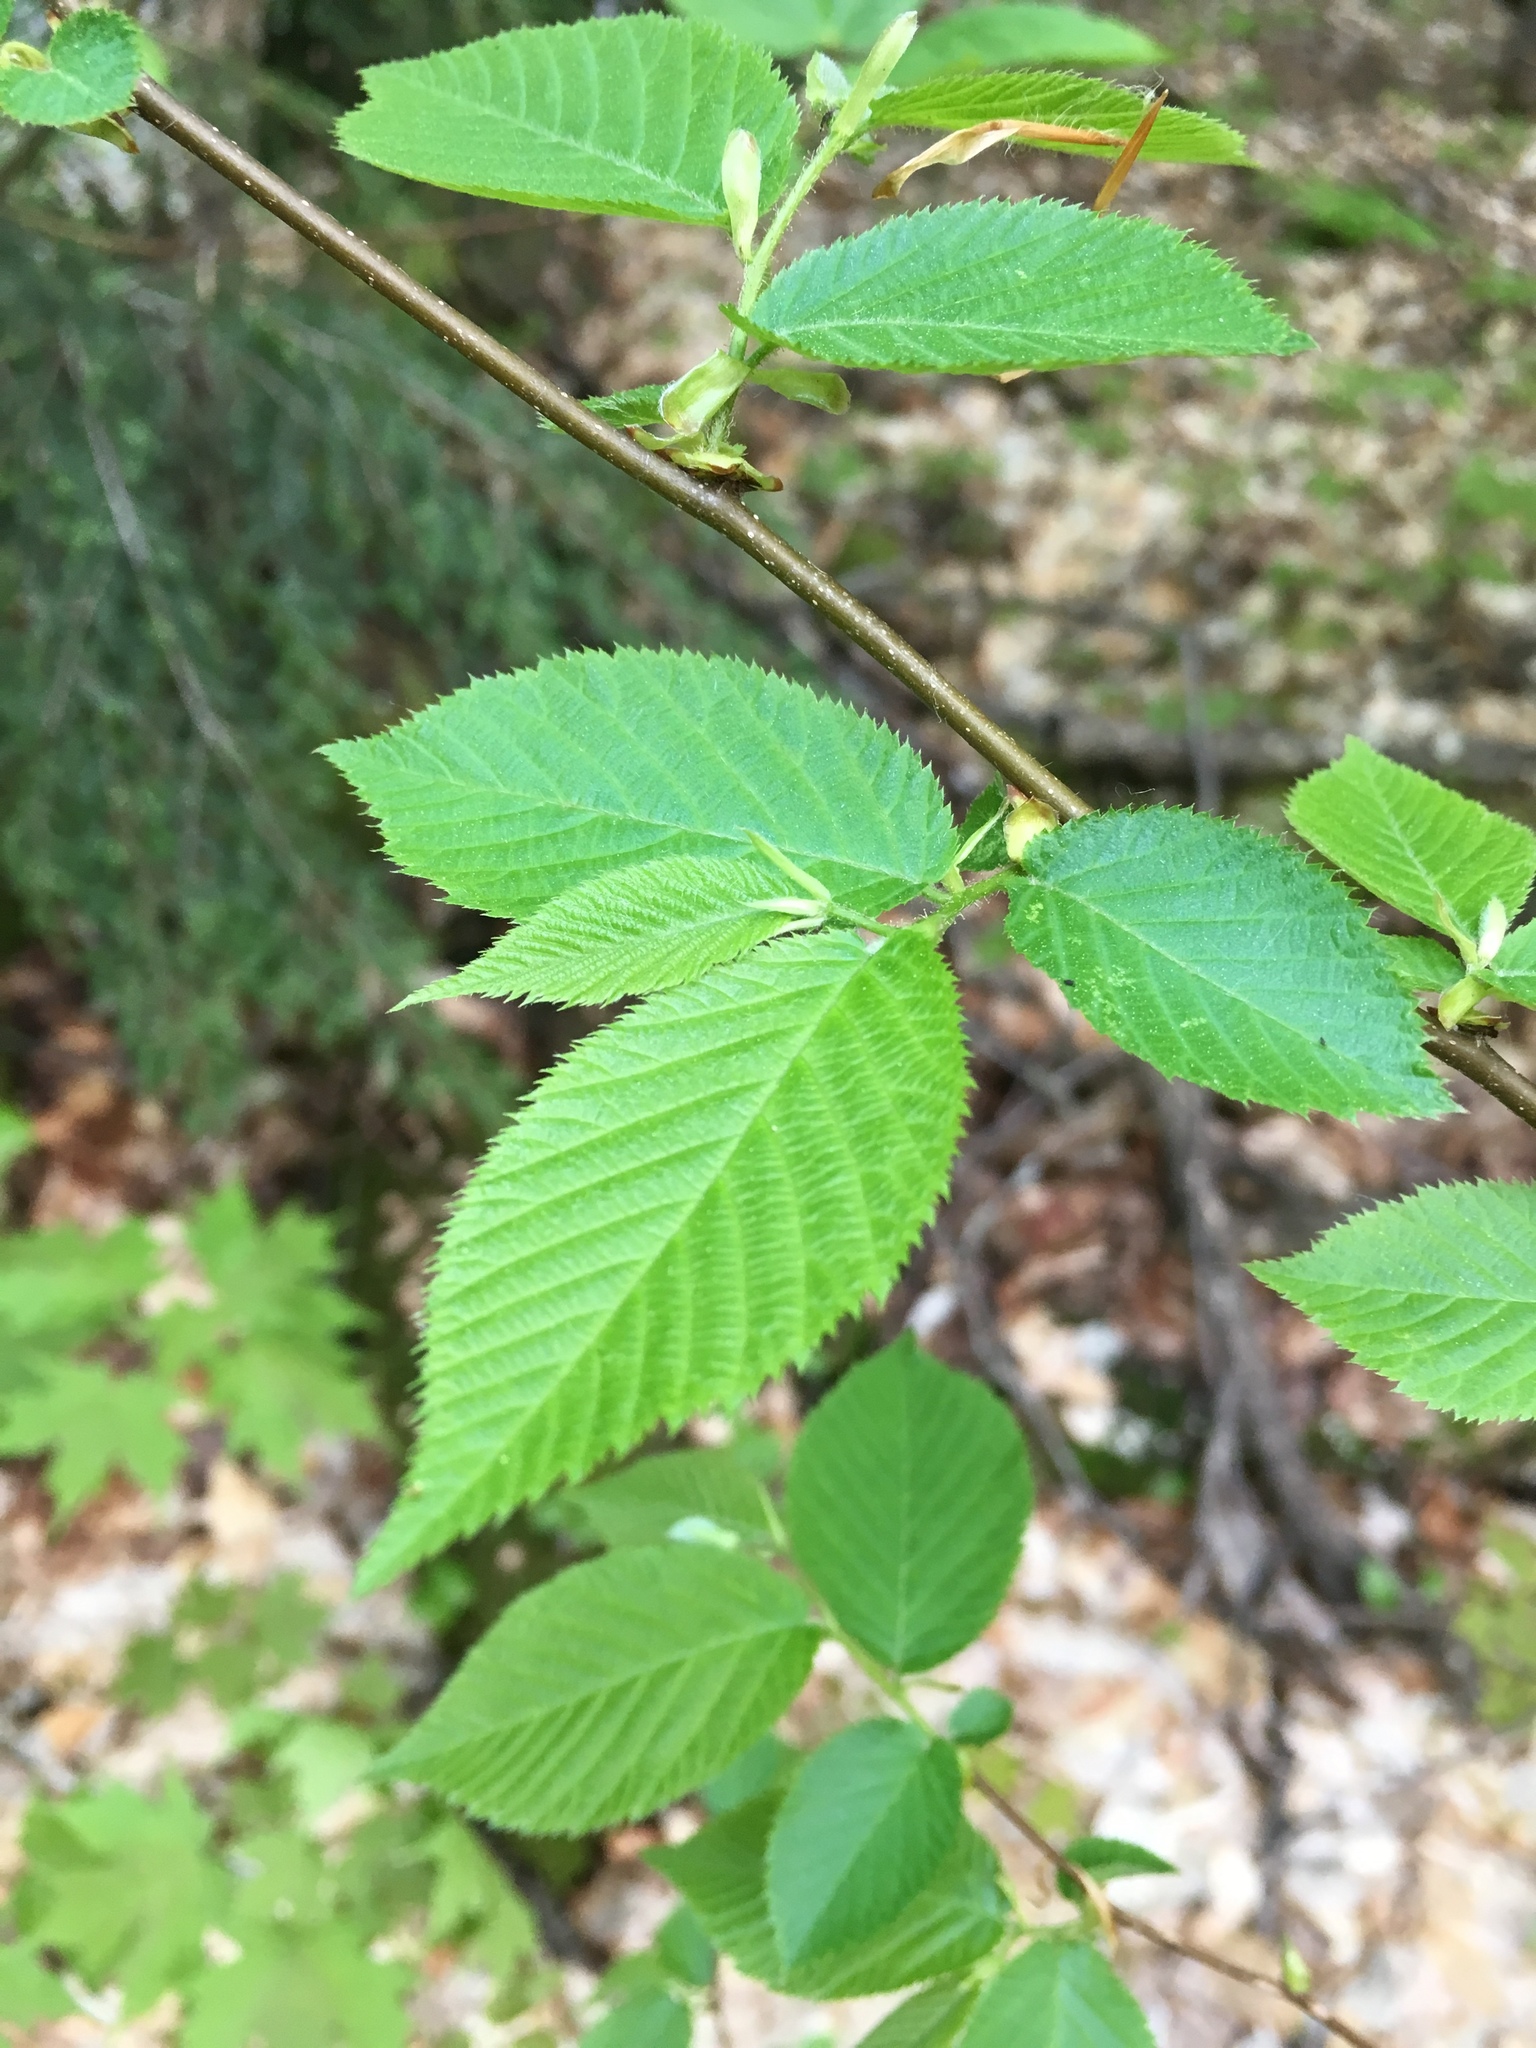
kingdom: Plantae
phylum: Tracheophyta
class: Magnoliopsida
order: Fagales
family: Betulaceae
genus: Ostrya
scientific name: Ostrya virginiana
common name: Ironwood
